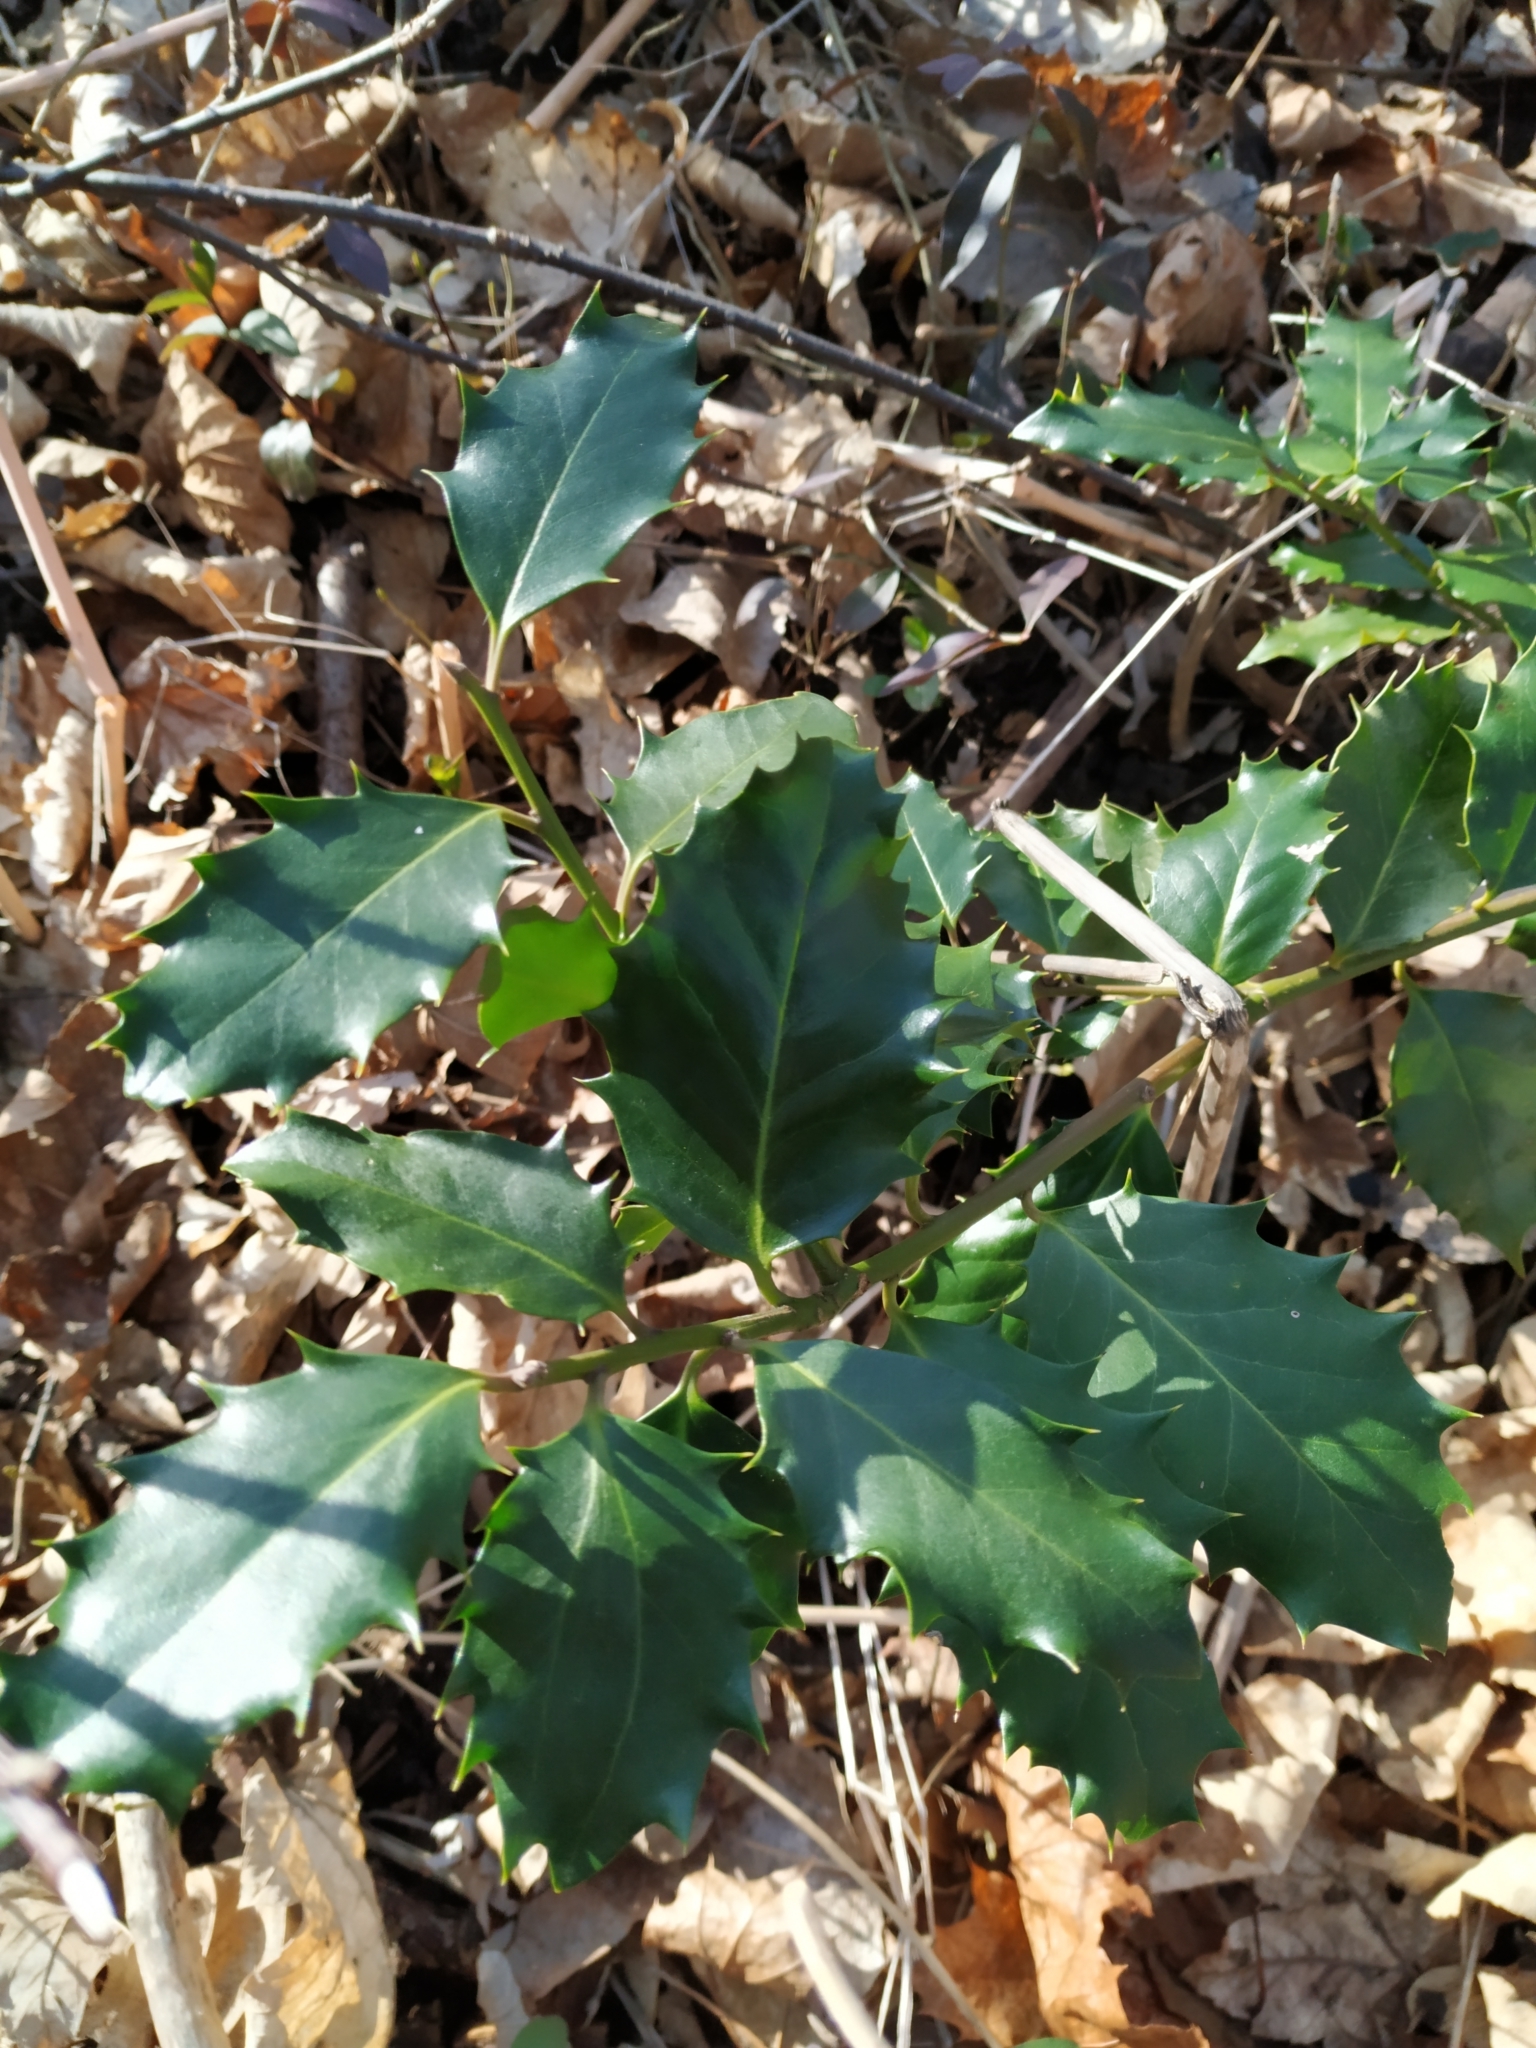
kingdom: Plantae
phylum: Tracheophyta
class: Magnoliopsida
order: Aquifoliales
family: Aquifoliaceae
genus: Ilex
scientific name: Ilex aquifolium
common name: English holly
